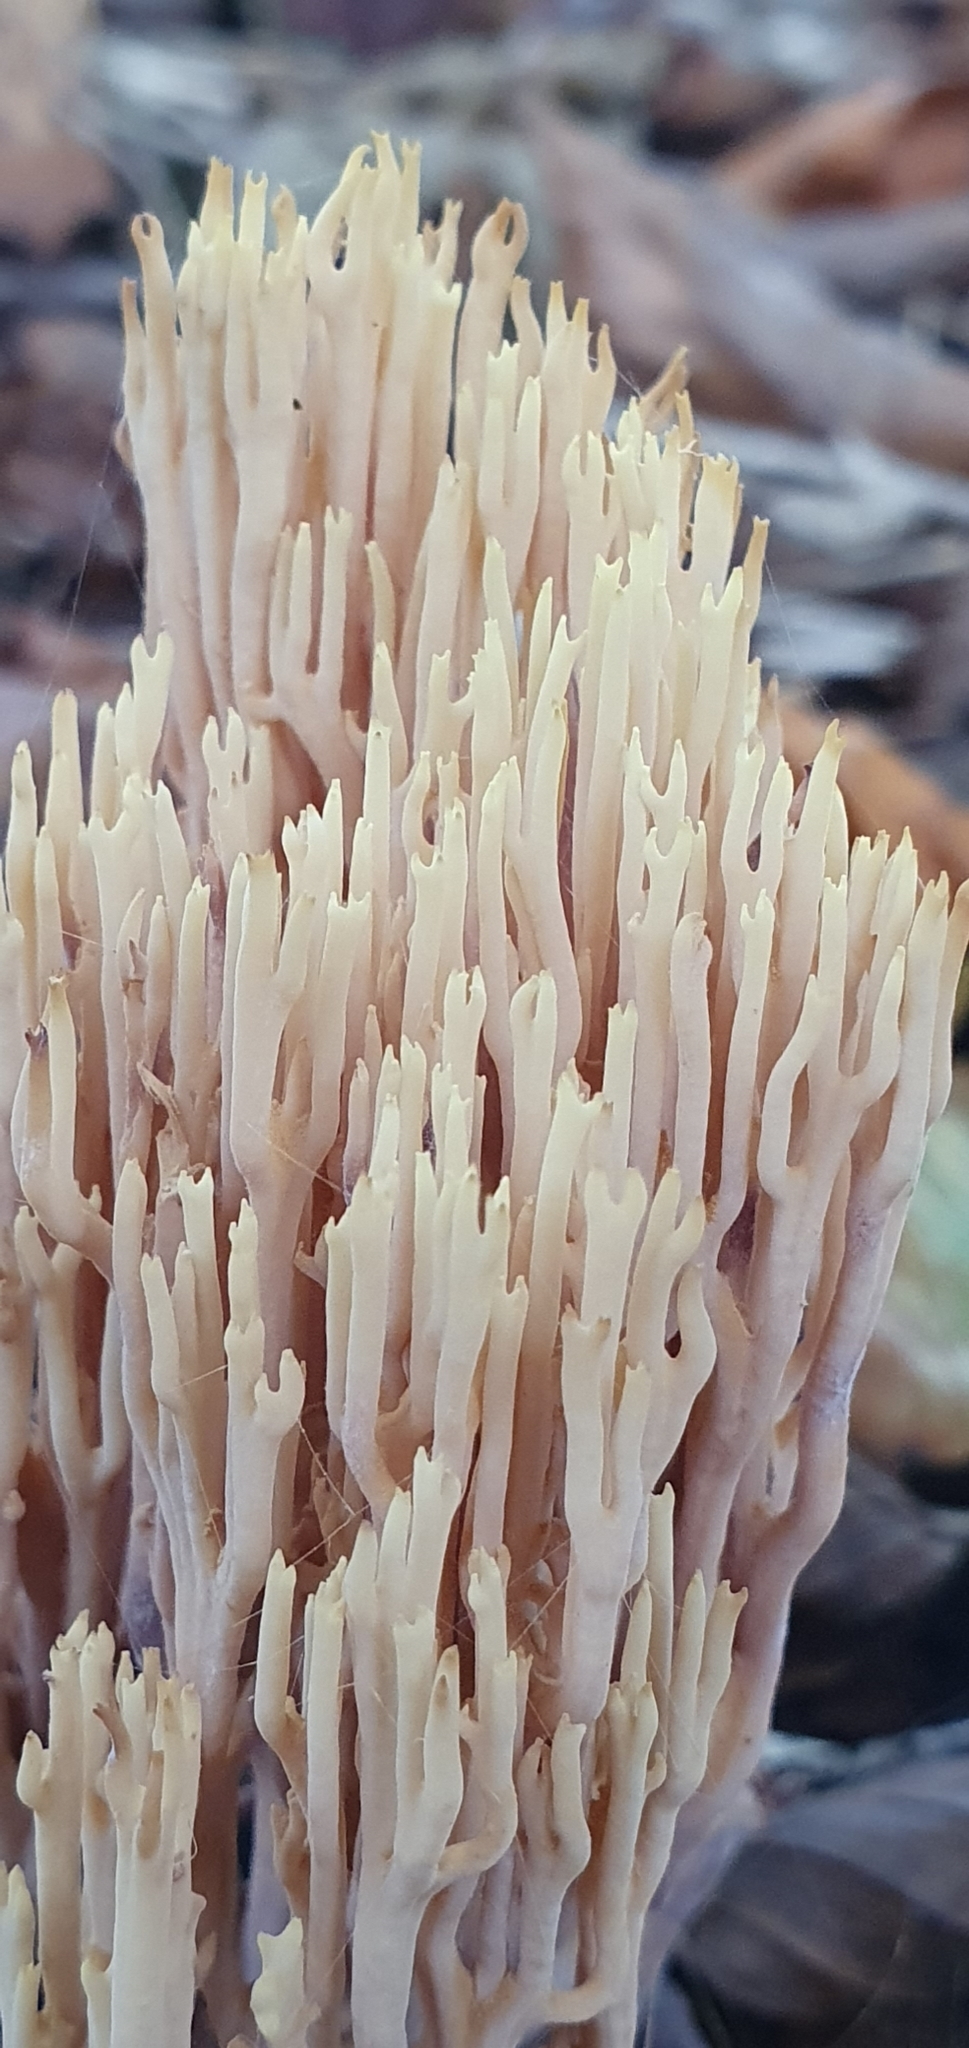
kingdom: Fungi
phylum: Basidiomycota
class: Agaricomycetes
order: Gomphales
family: Gomphaceae
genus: Ramaria
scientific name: Ramaria stricta
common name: Upright coral
